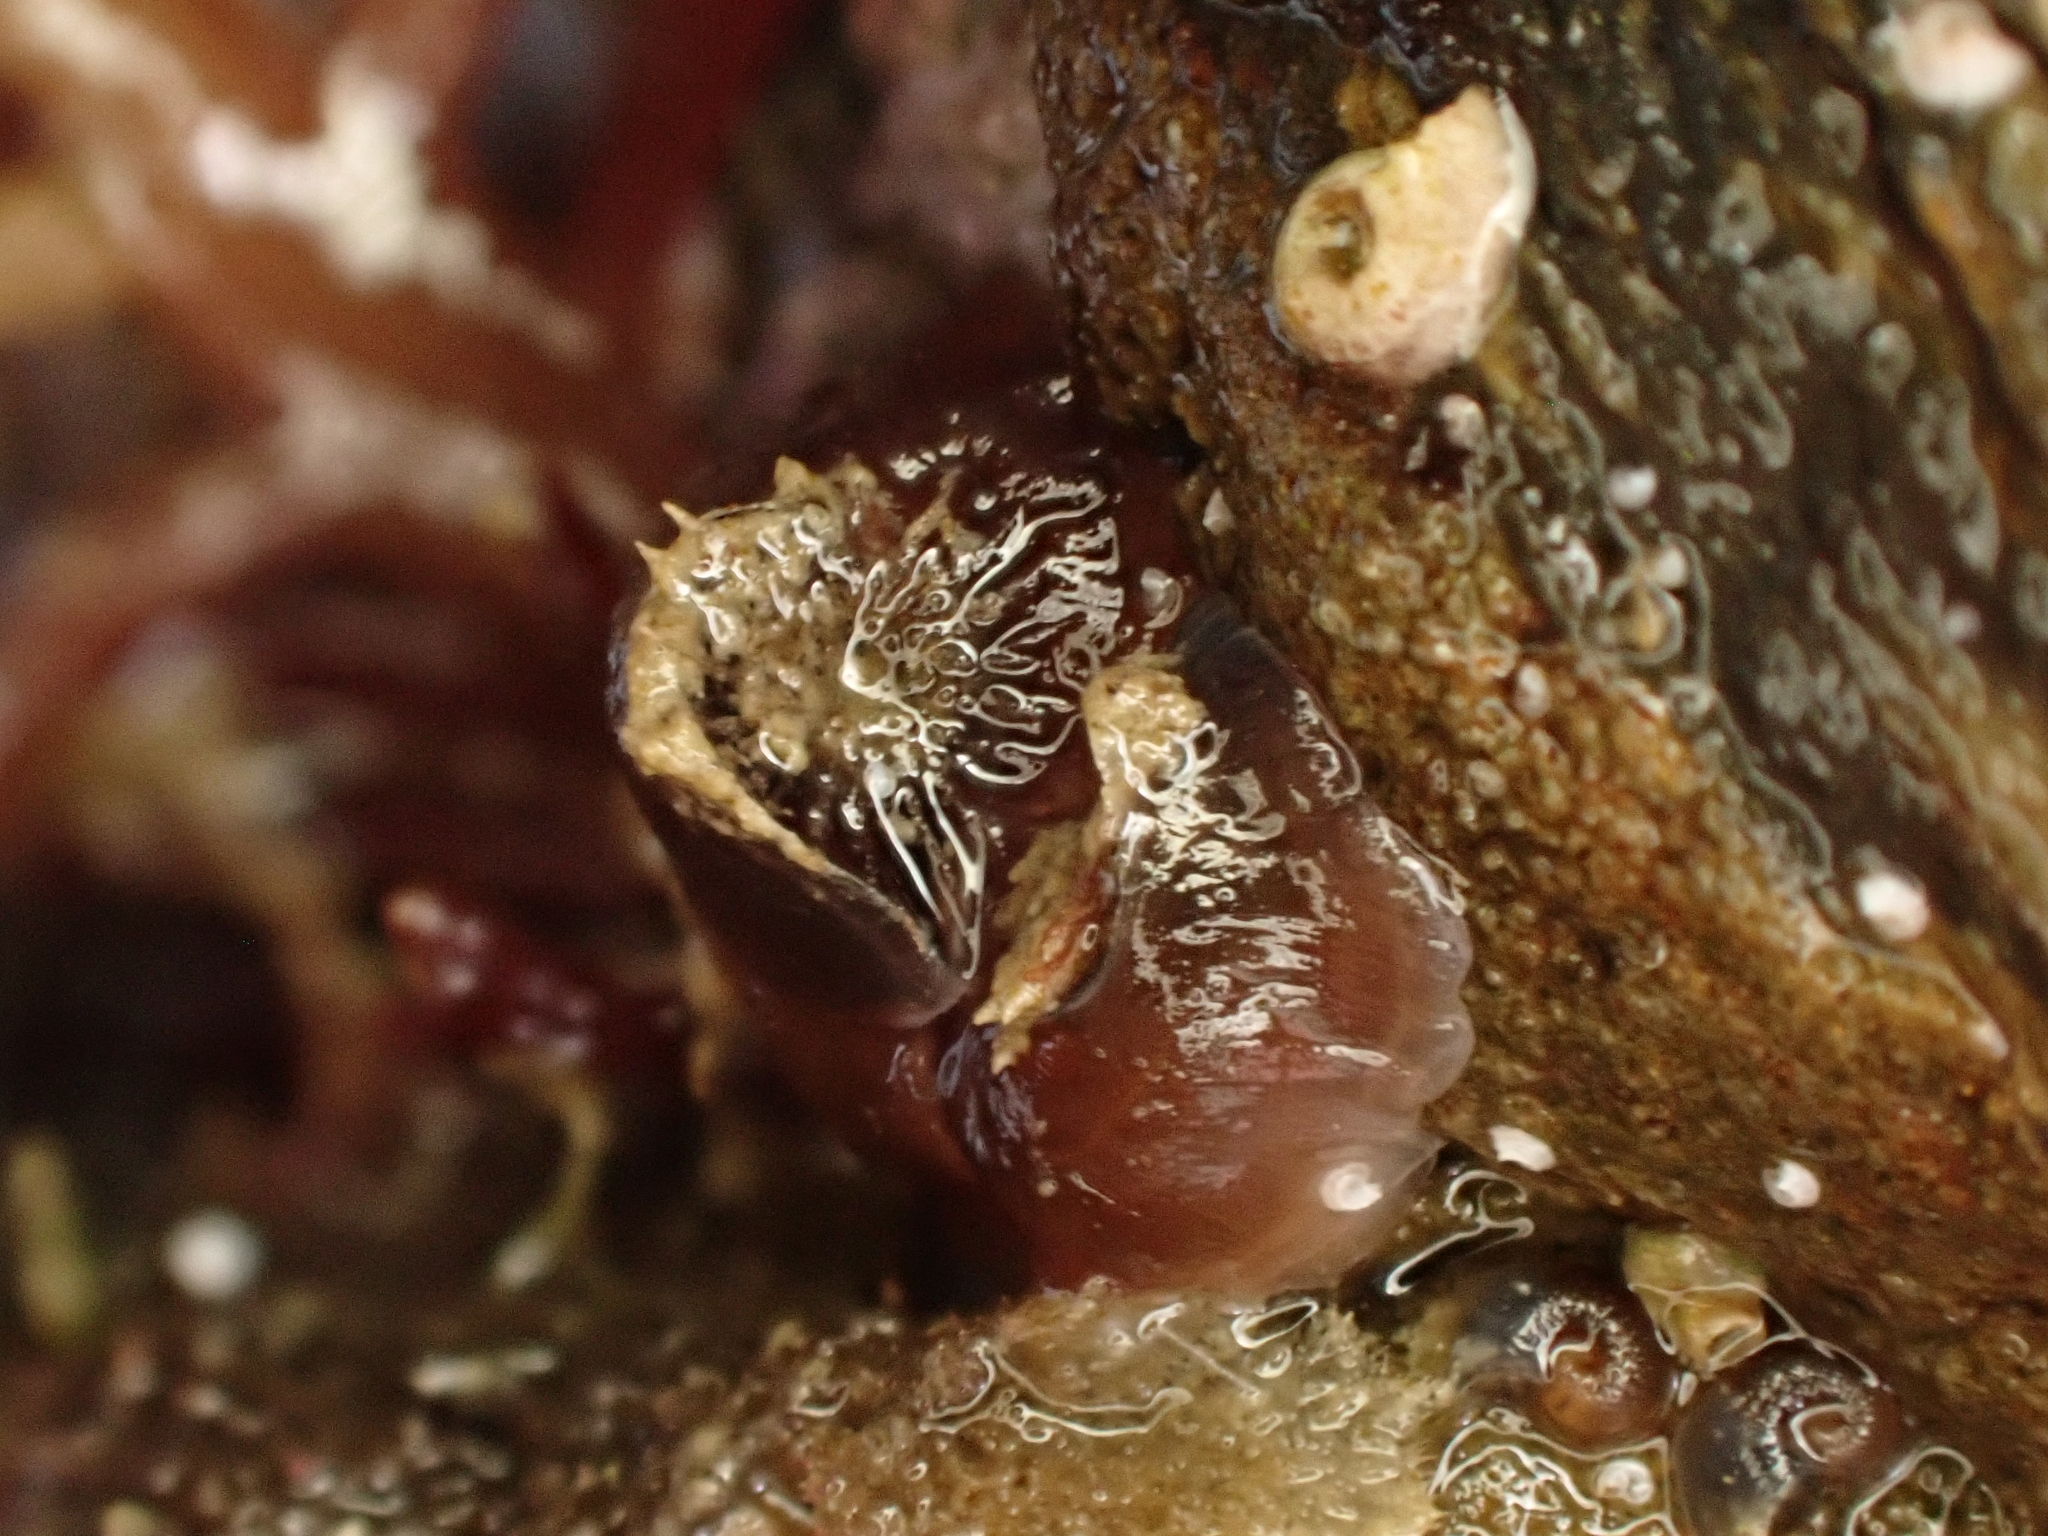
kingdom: Animalia
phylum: Mollusca
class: Gastropoda
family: Siliquariidae
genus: Stephopoma
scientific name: Stephopoma roseum
